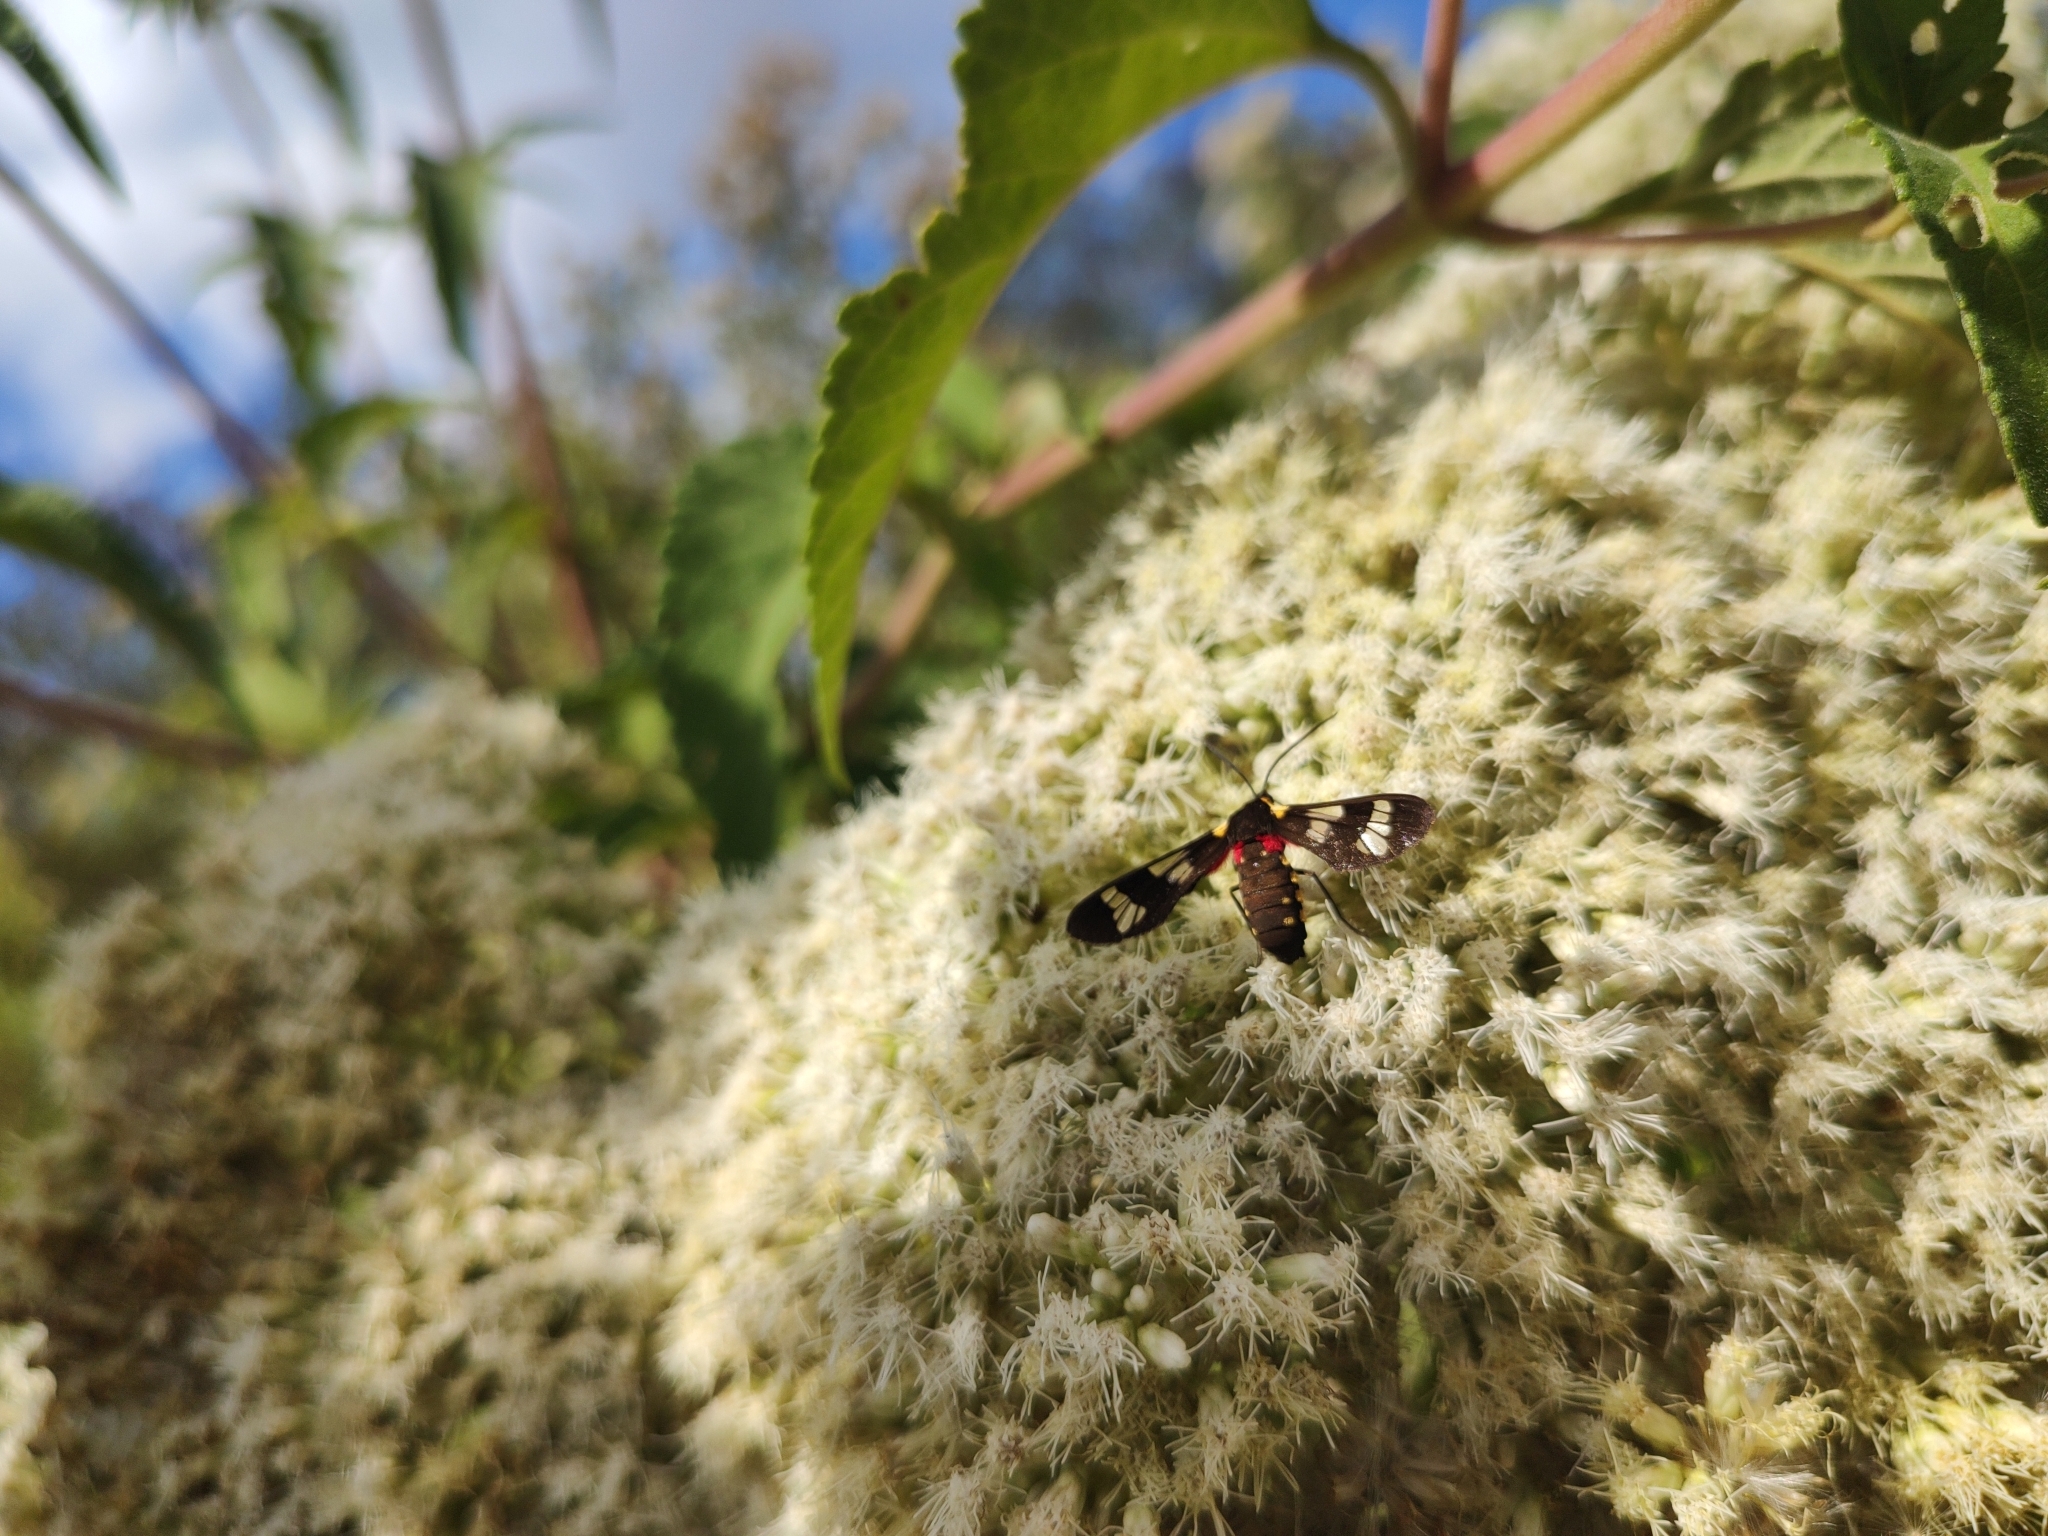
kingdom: Animalia
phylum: Arthropoda
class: Insecta
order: Lepidoptera
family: Erebidae
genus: Eurata
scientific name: Eurata hermione
